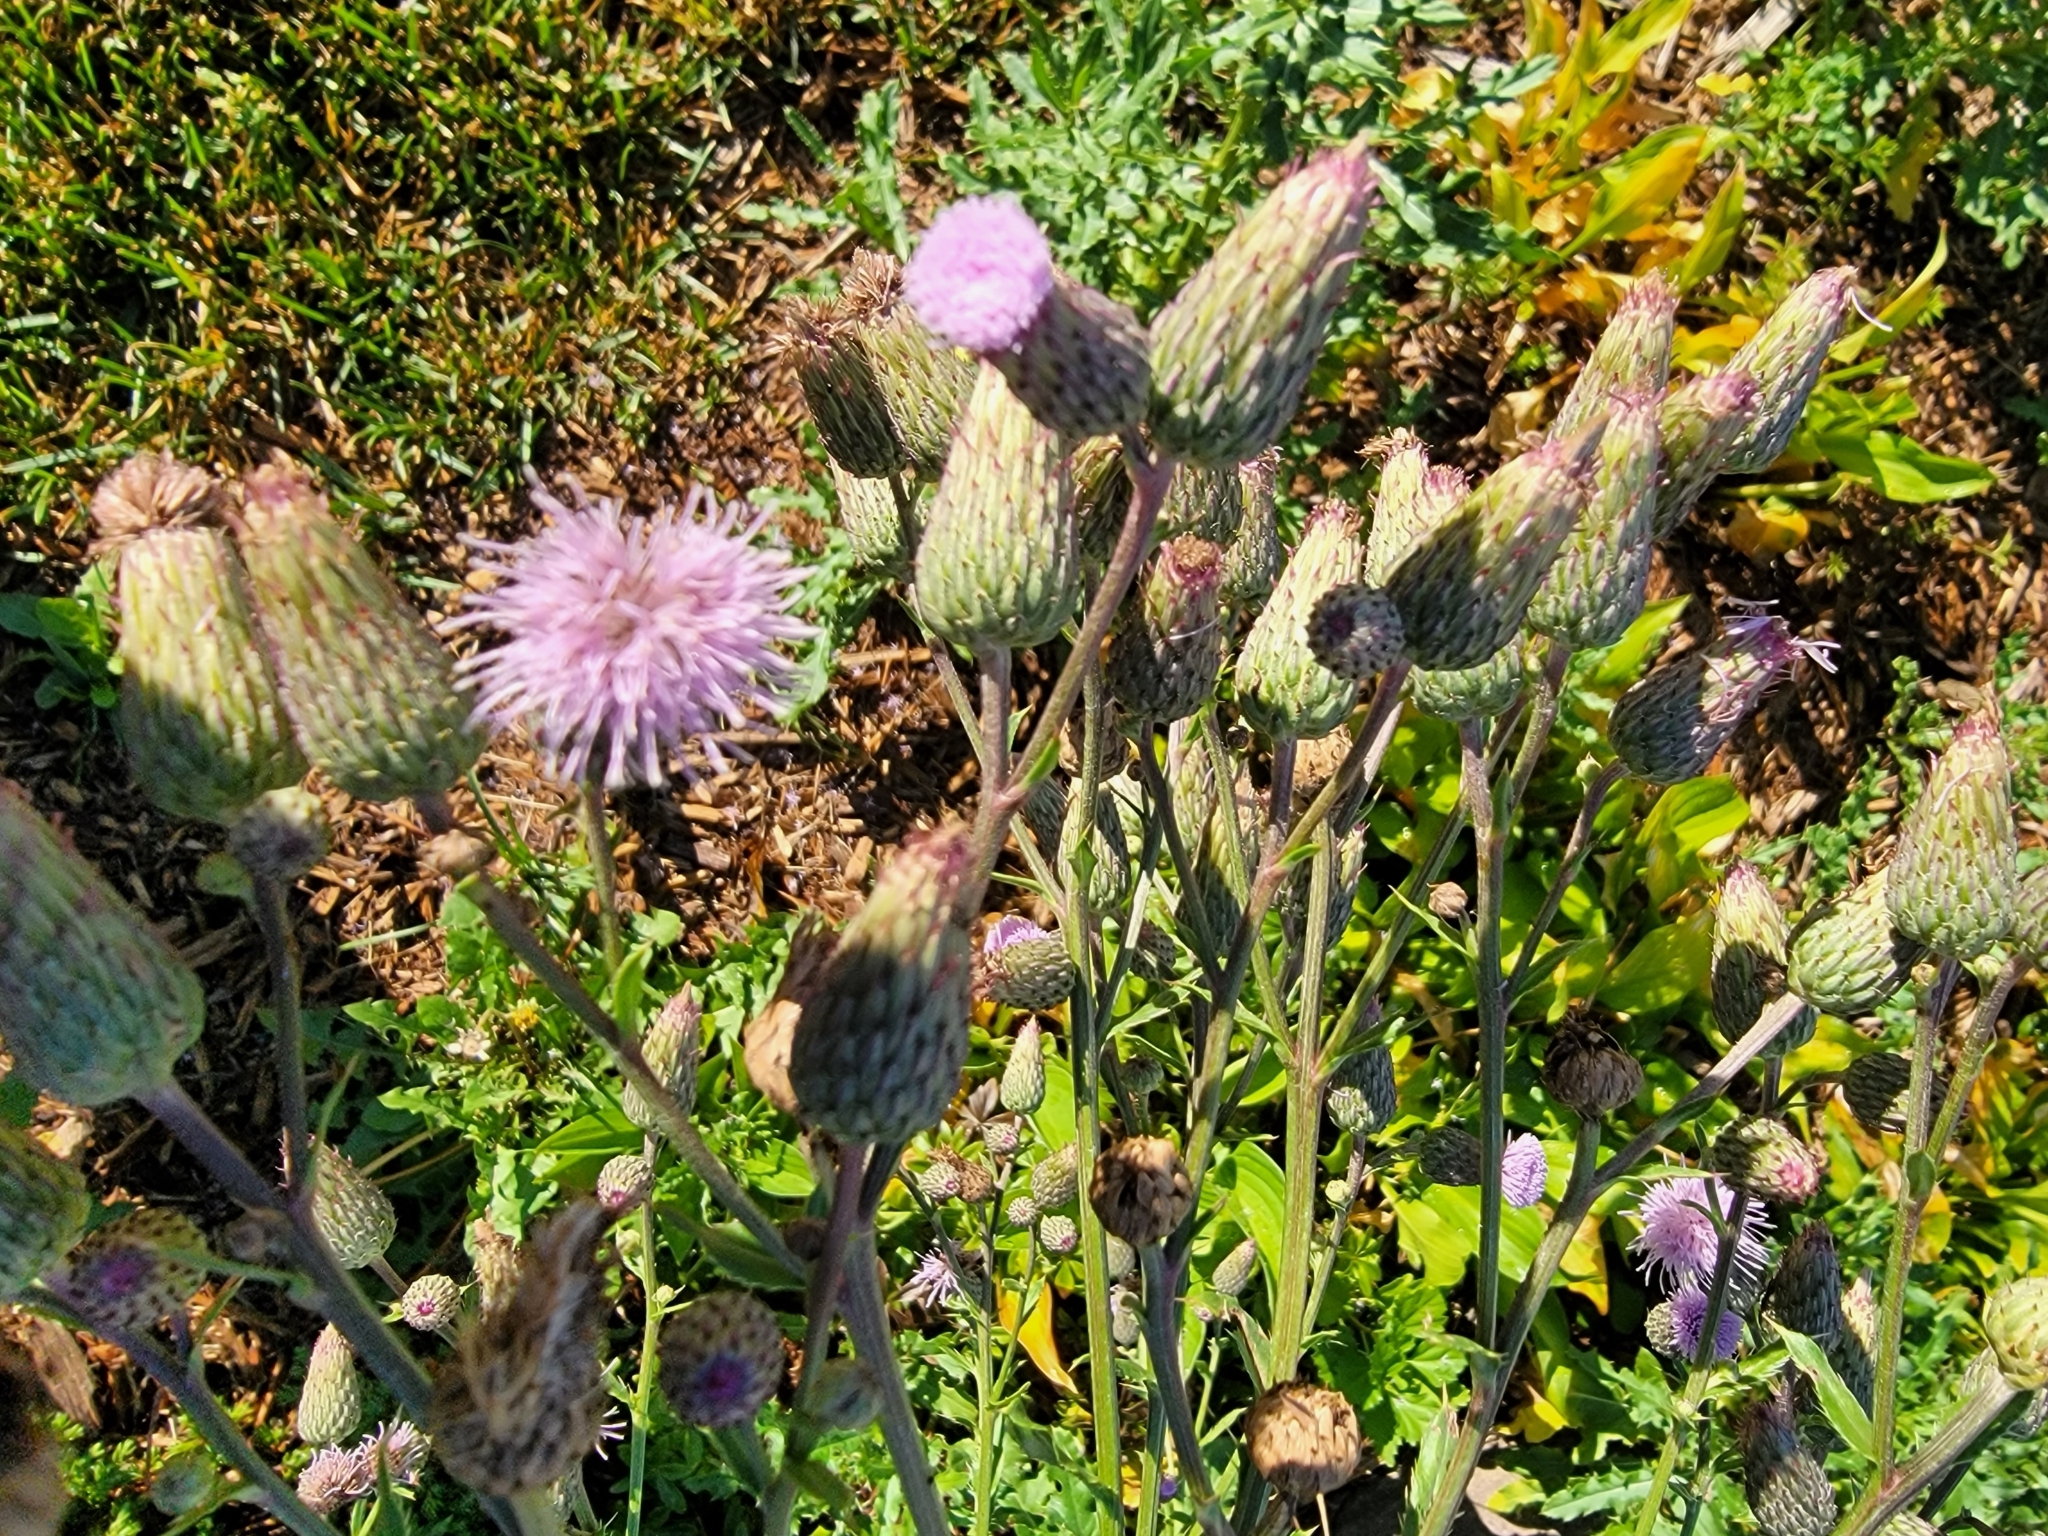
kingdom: Plantae
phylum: Tracheophyta
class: Magnoliopsida
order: Asterales
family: Asteraceae
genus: Cirsium
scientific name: Cirsium arvense
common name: Creeping thistle
